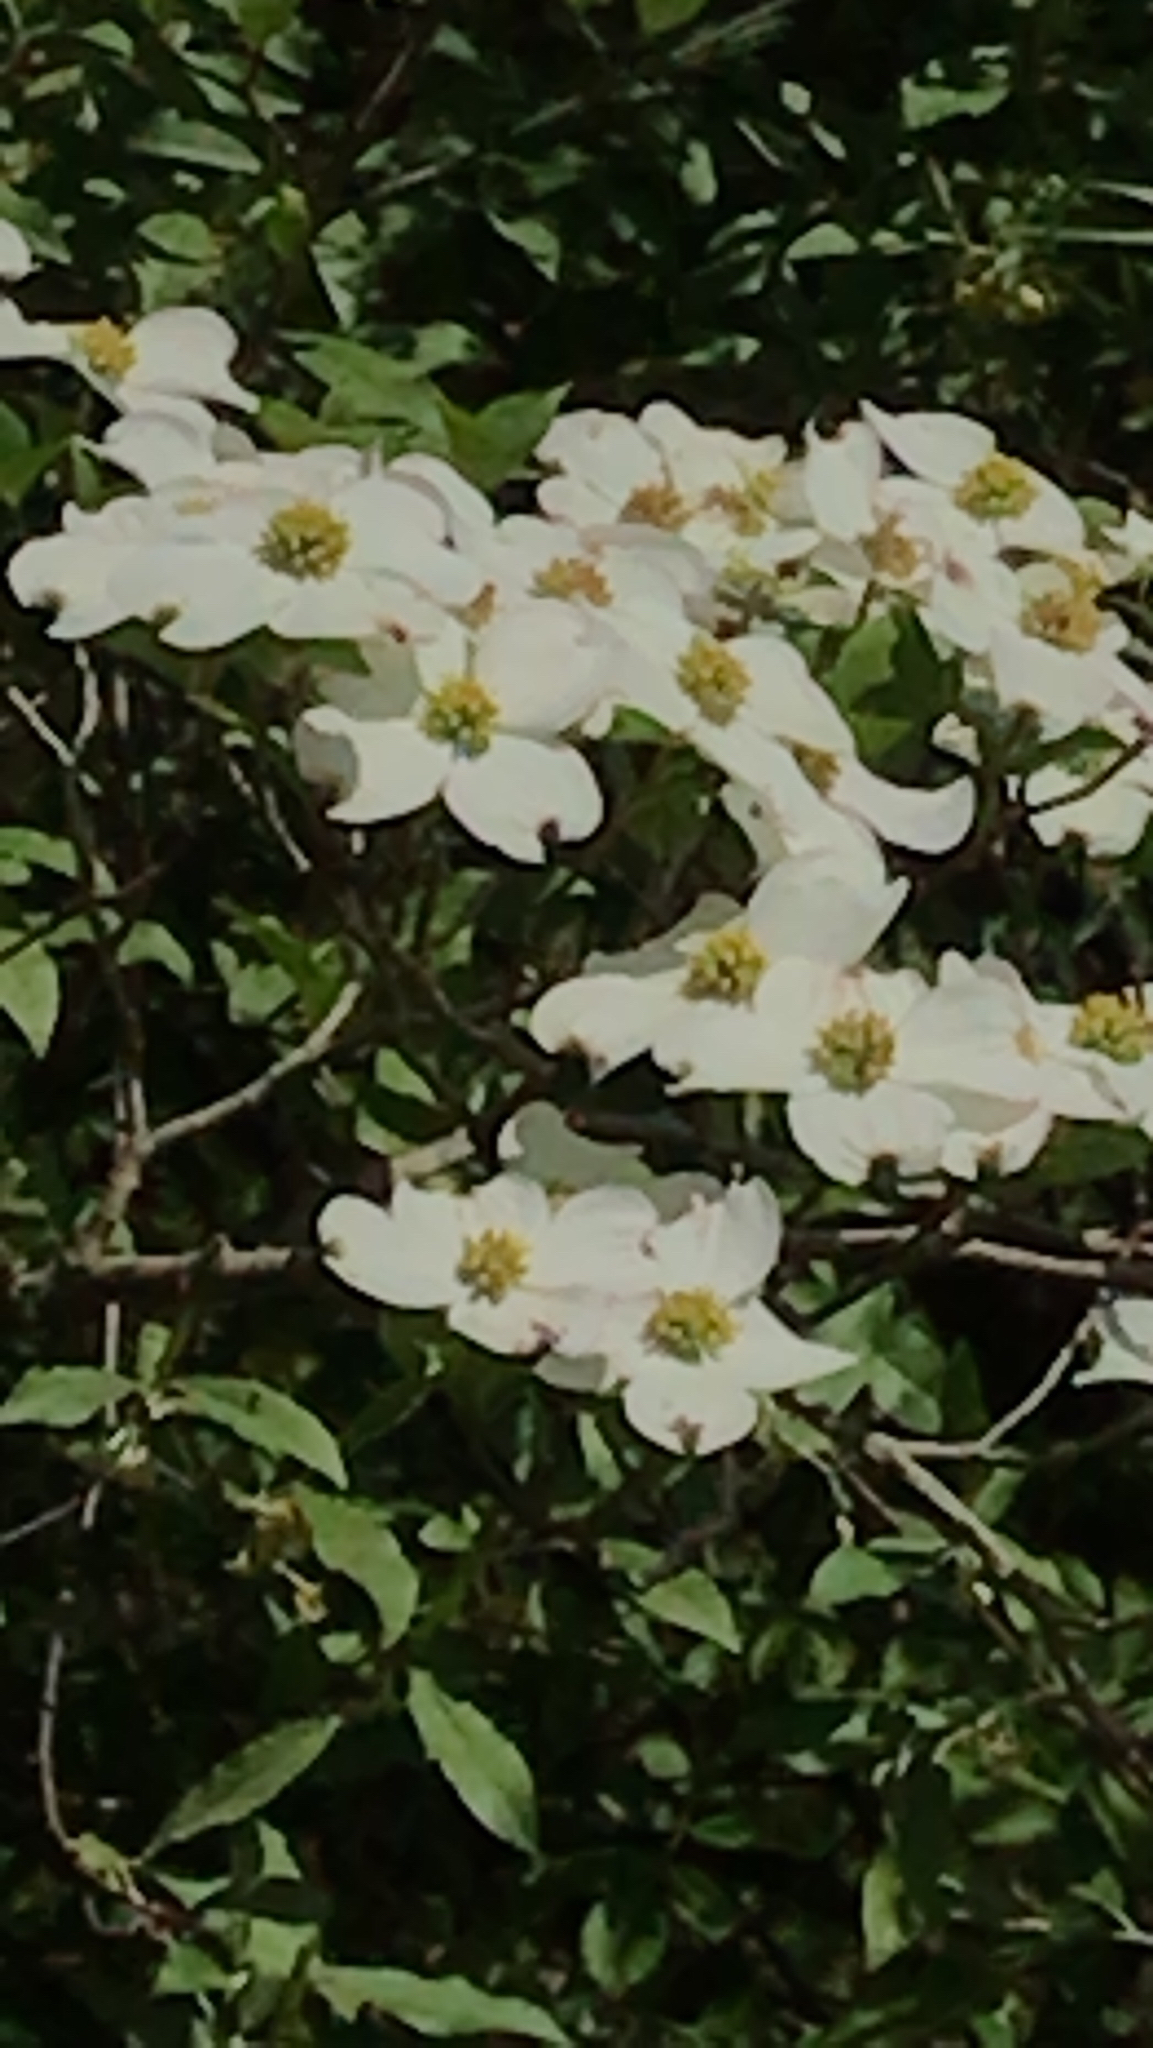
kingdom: Plantae
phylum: Tracheophyta
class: Magnoliopsida
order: Cornales
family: Cornaceae
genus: Cornus
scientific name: Cornus florida
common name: Flowering dogwood
